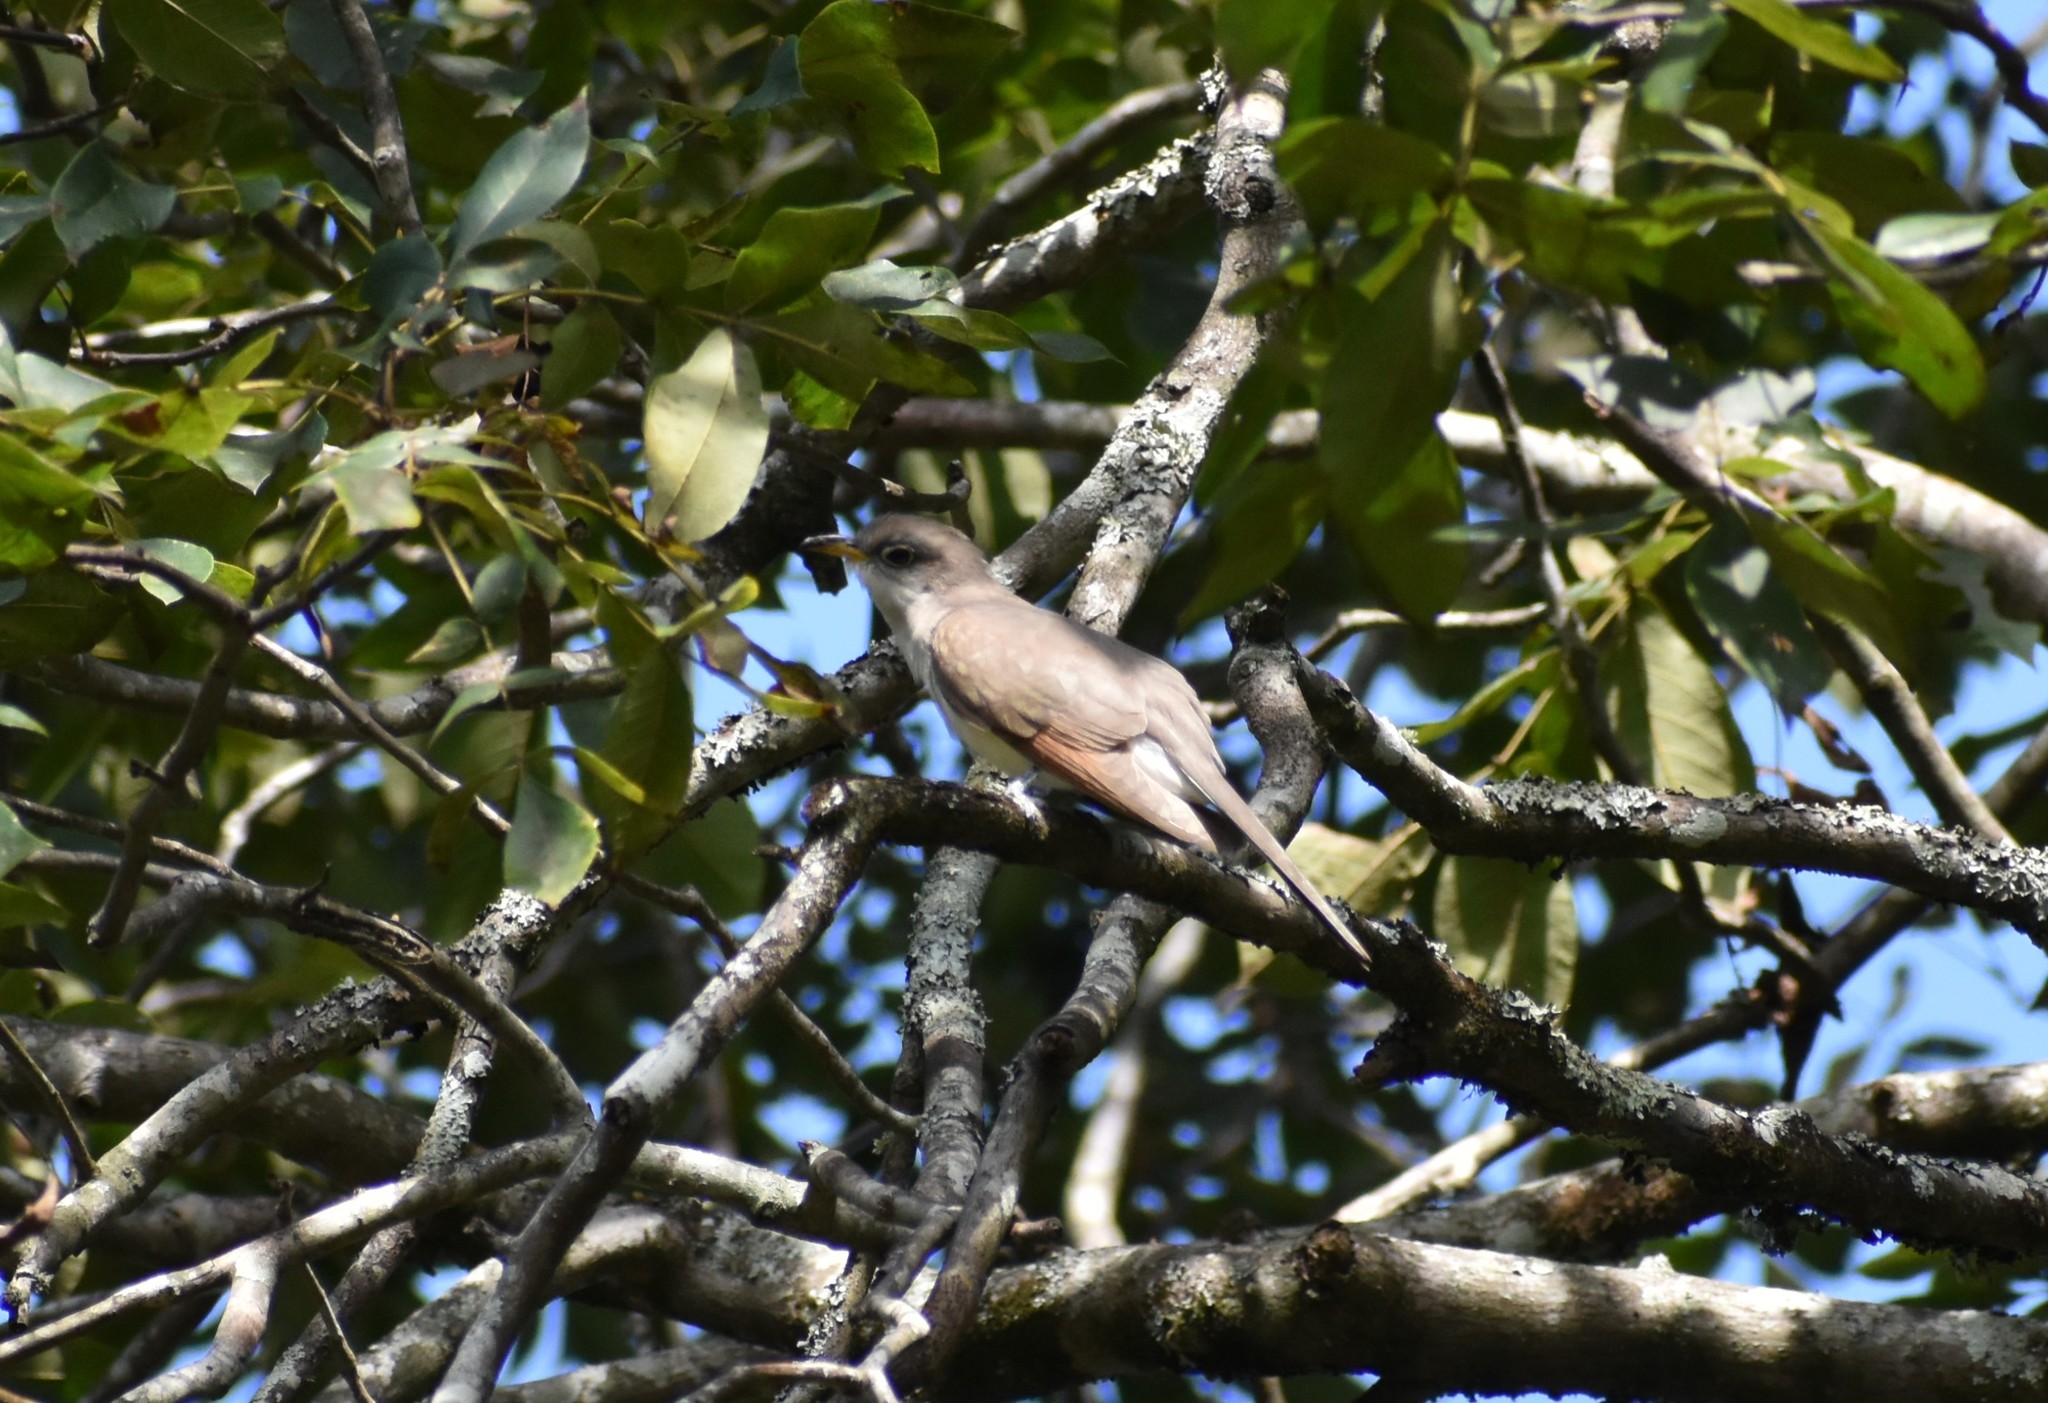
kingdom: Animalia
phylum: Chordata
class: Aves
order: Cuculiformes
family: Cuculidae
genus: Coccyzus
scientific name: Coccyzus americanus
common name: Yellow-billed cuckoo
